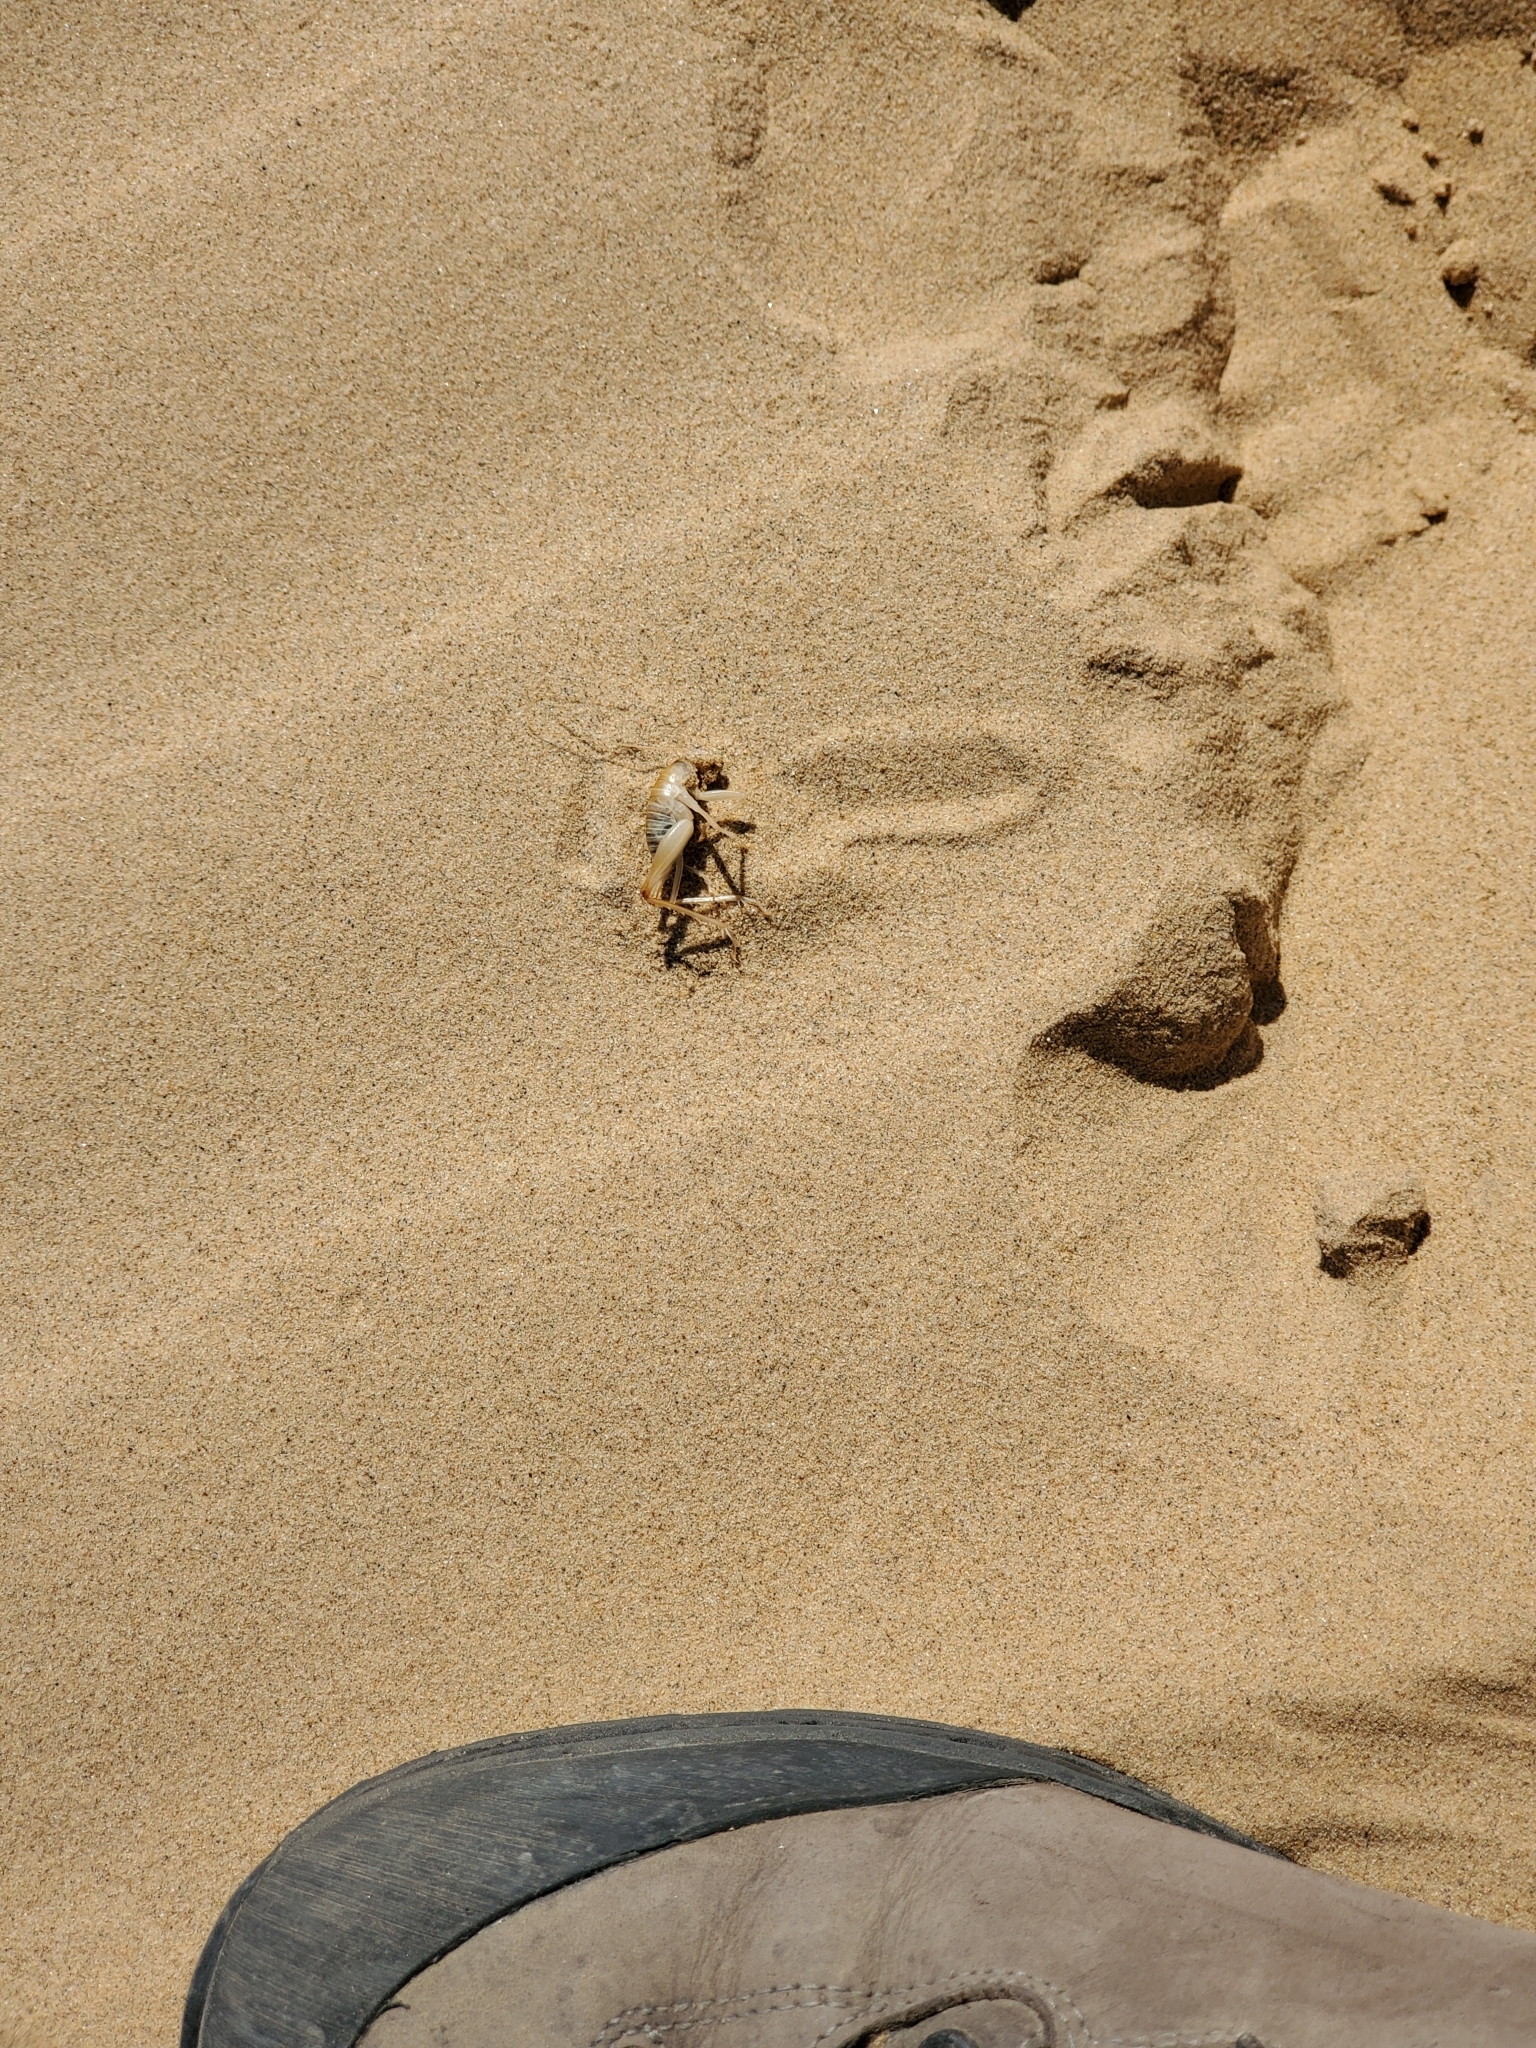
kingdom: Animalia
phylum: Arthropoda
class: Insecta
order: Orthoptera
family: Rhaphidophoridae
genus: Ceuthophilus
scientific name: Ceuthophilus fossor
